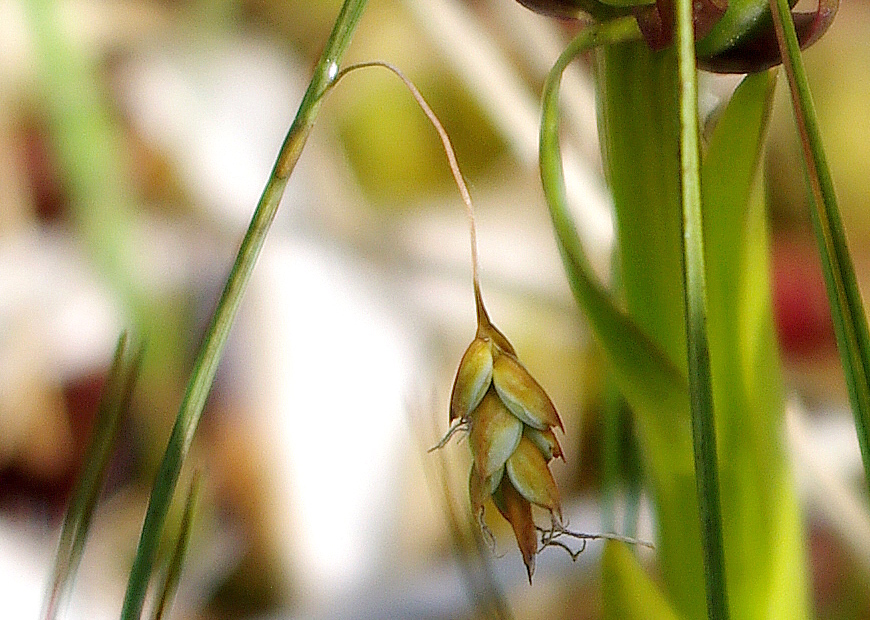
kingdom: Plantae
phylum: Tracheophyta
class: Liliopsida
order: Poales
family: Cyperaceae
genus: Carex
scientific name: Carex limosa
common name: Bog sedge
